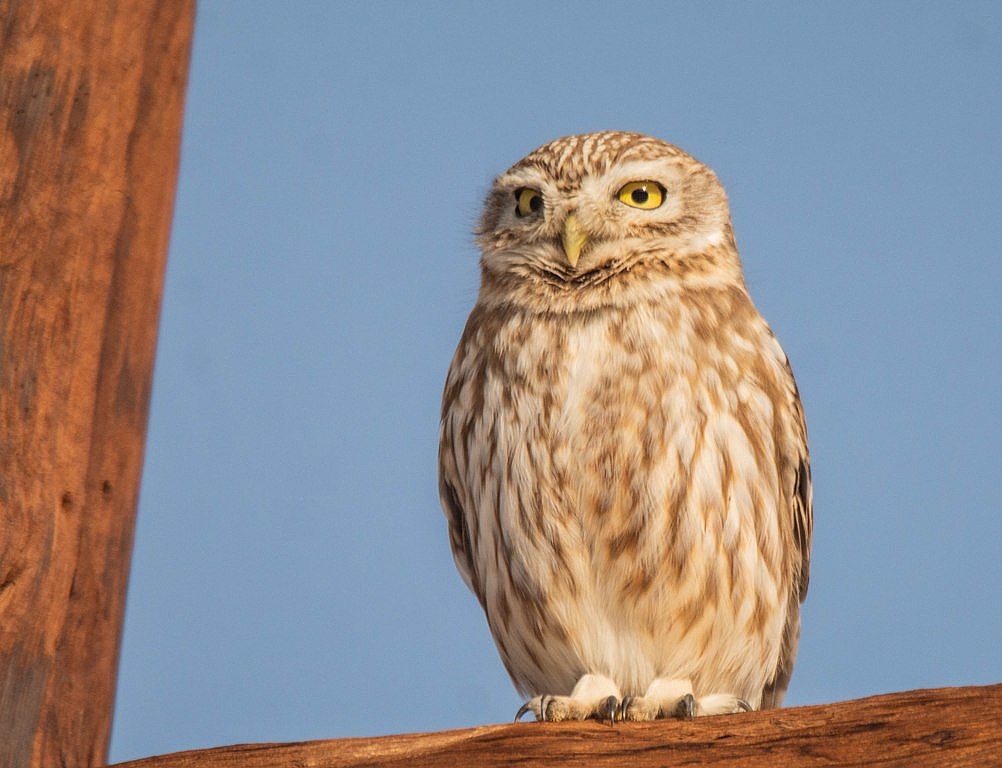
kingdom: Animalia
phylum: Chordata
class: Aves
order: Strigiformes
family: Strigidae
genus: Athene
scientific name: Athene noctua
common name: Little owl
